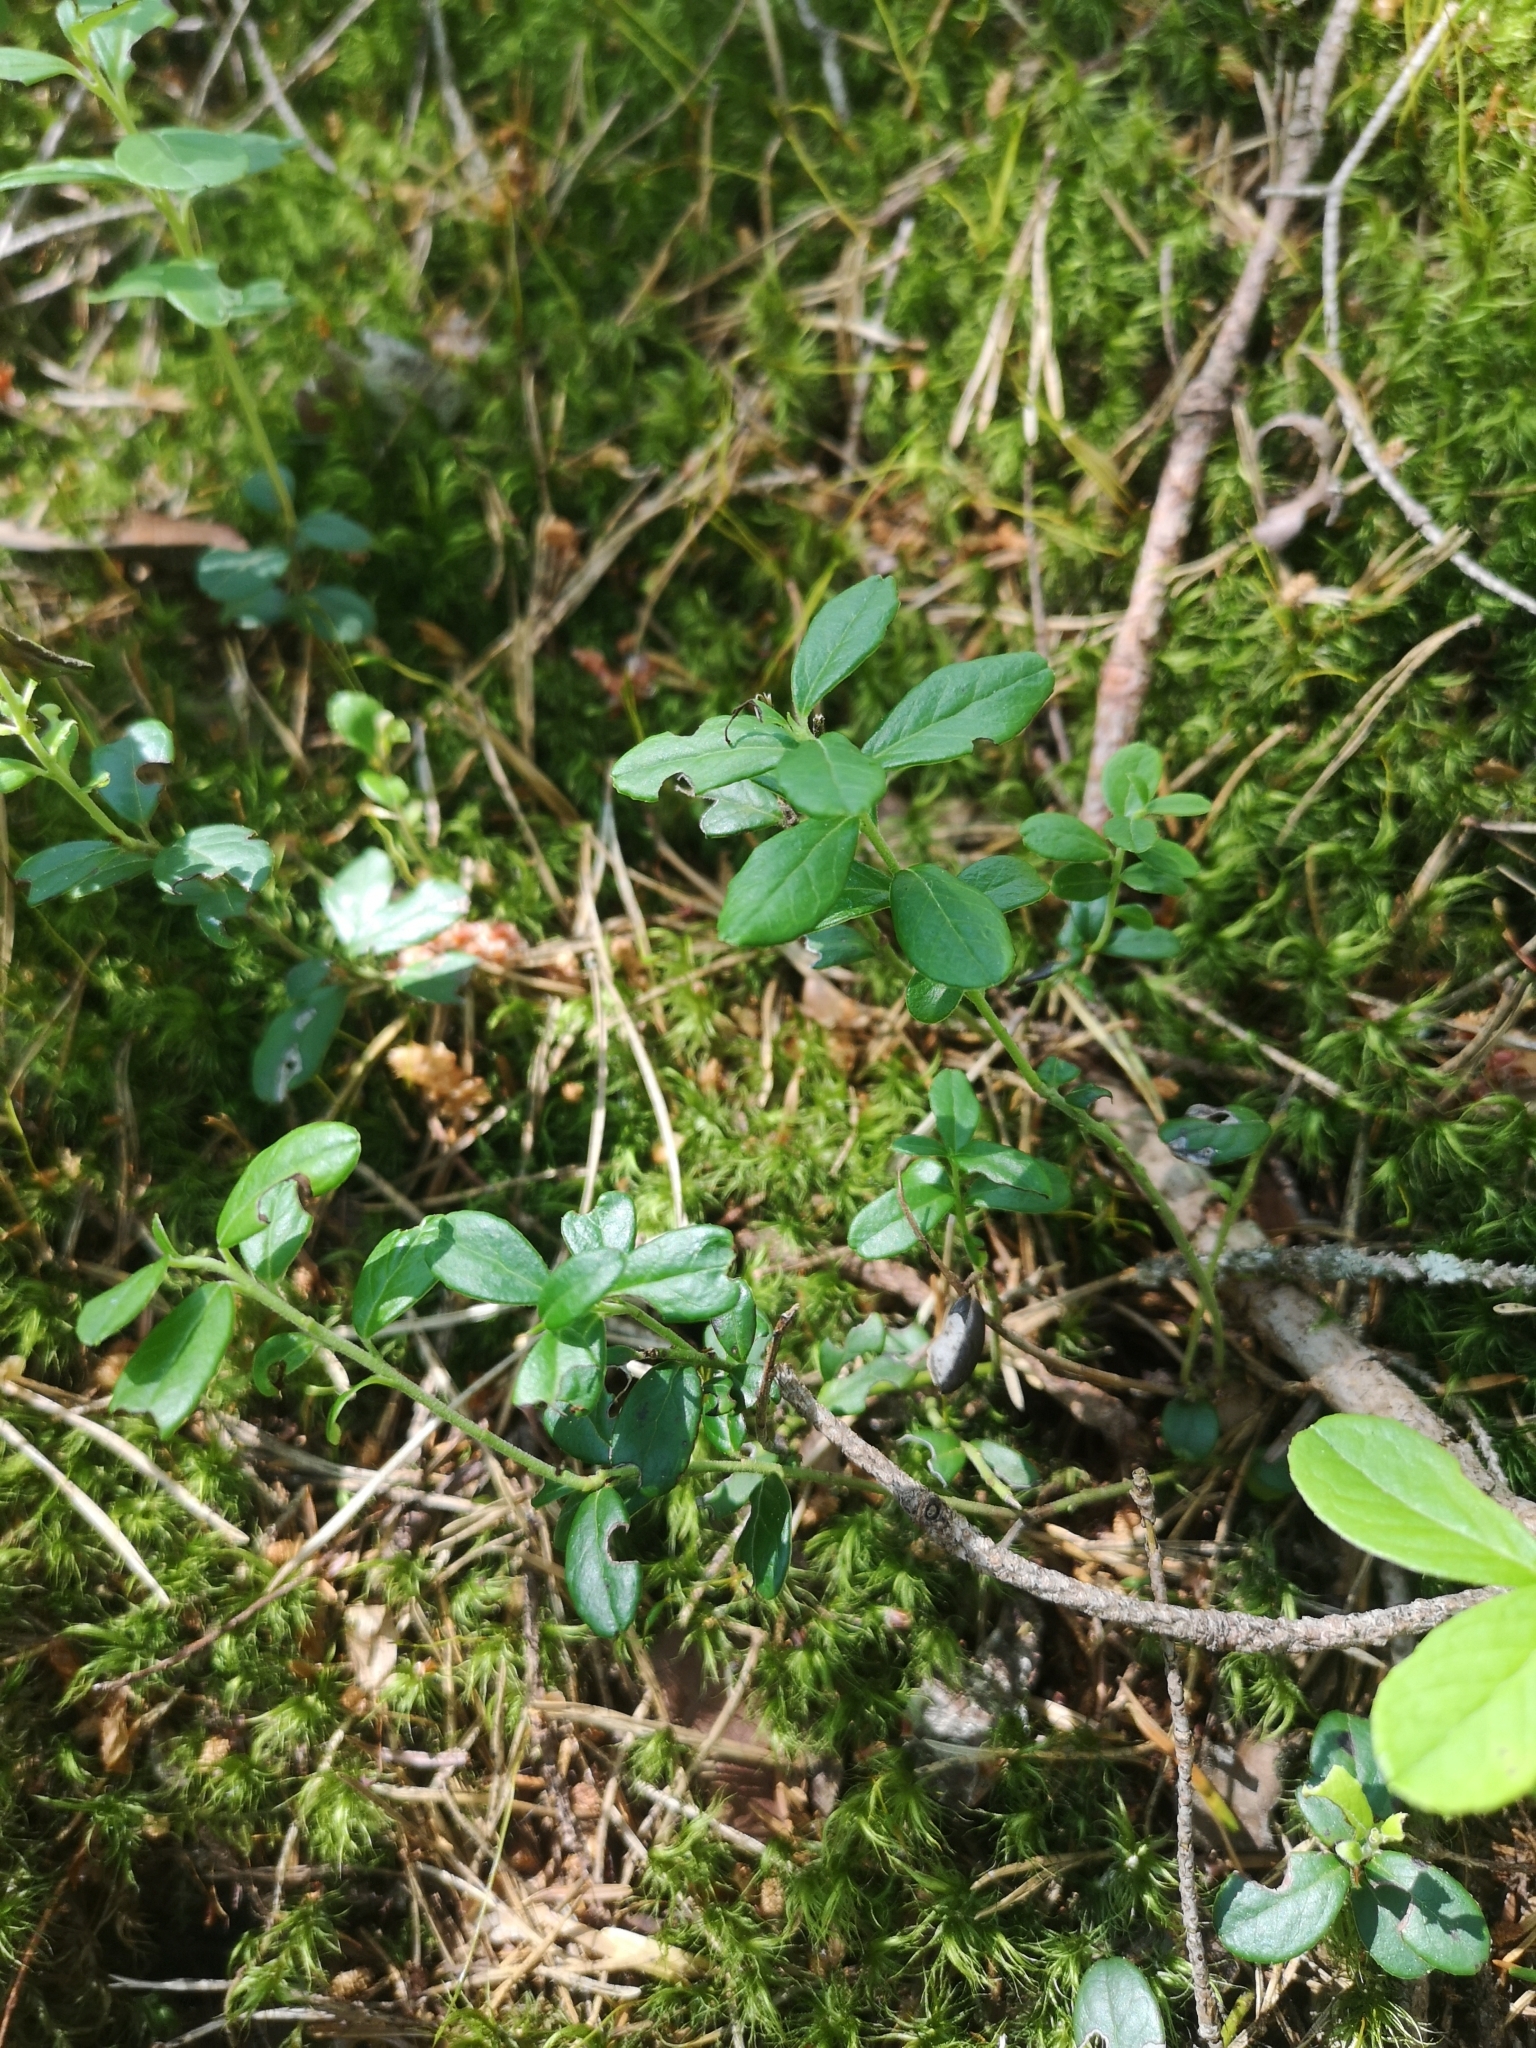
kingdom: Plantae
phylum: Tracheophyta
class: Magnoliopsida
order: Ericales
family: Ericaceae
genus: Vaccinium
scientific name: Vaccinium vitis-idaea
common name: Cowberry
